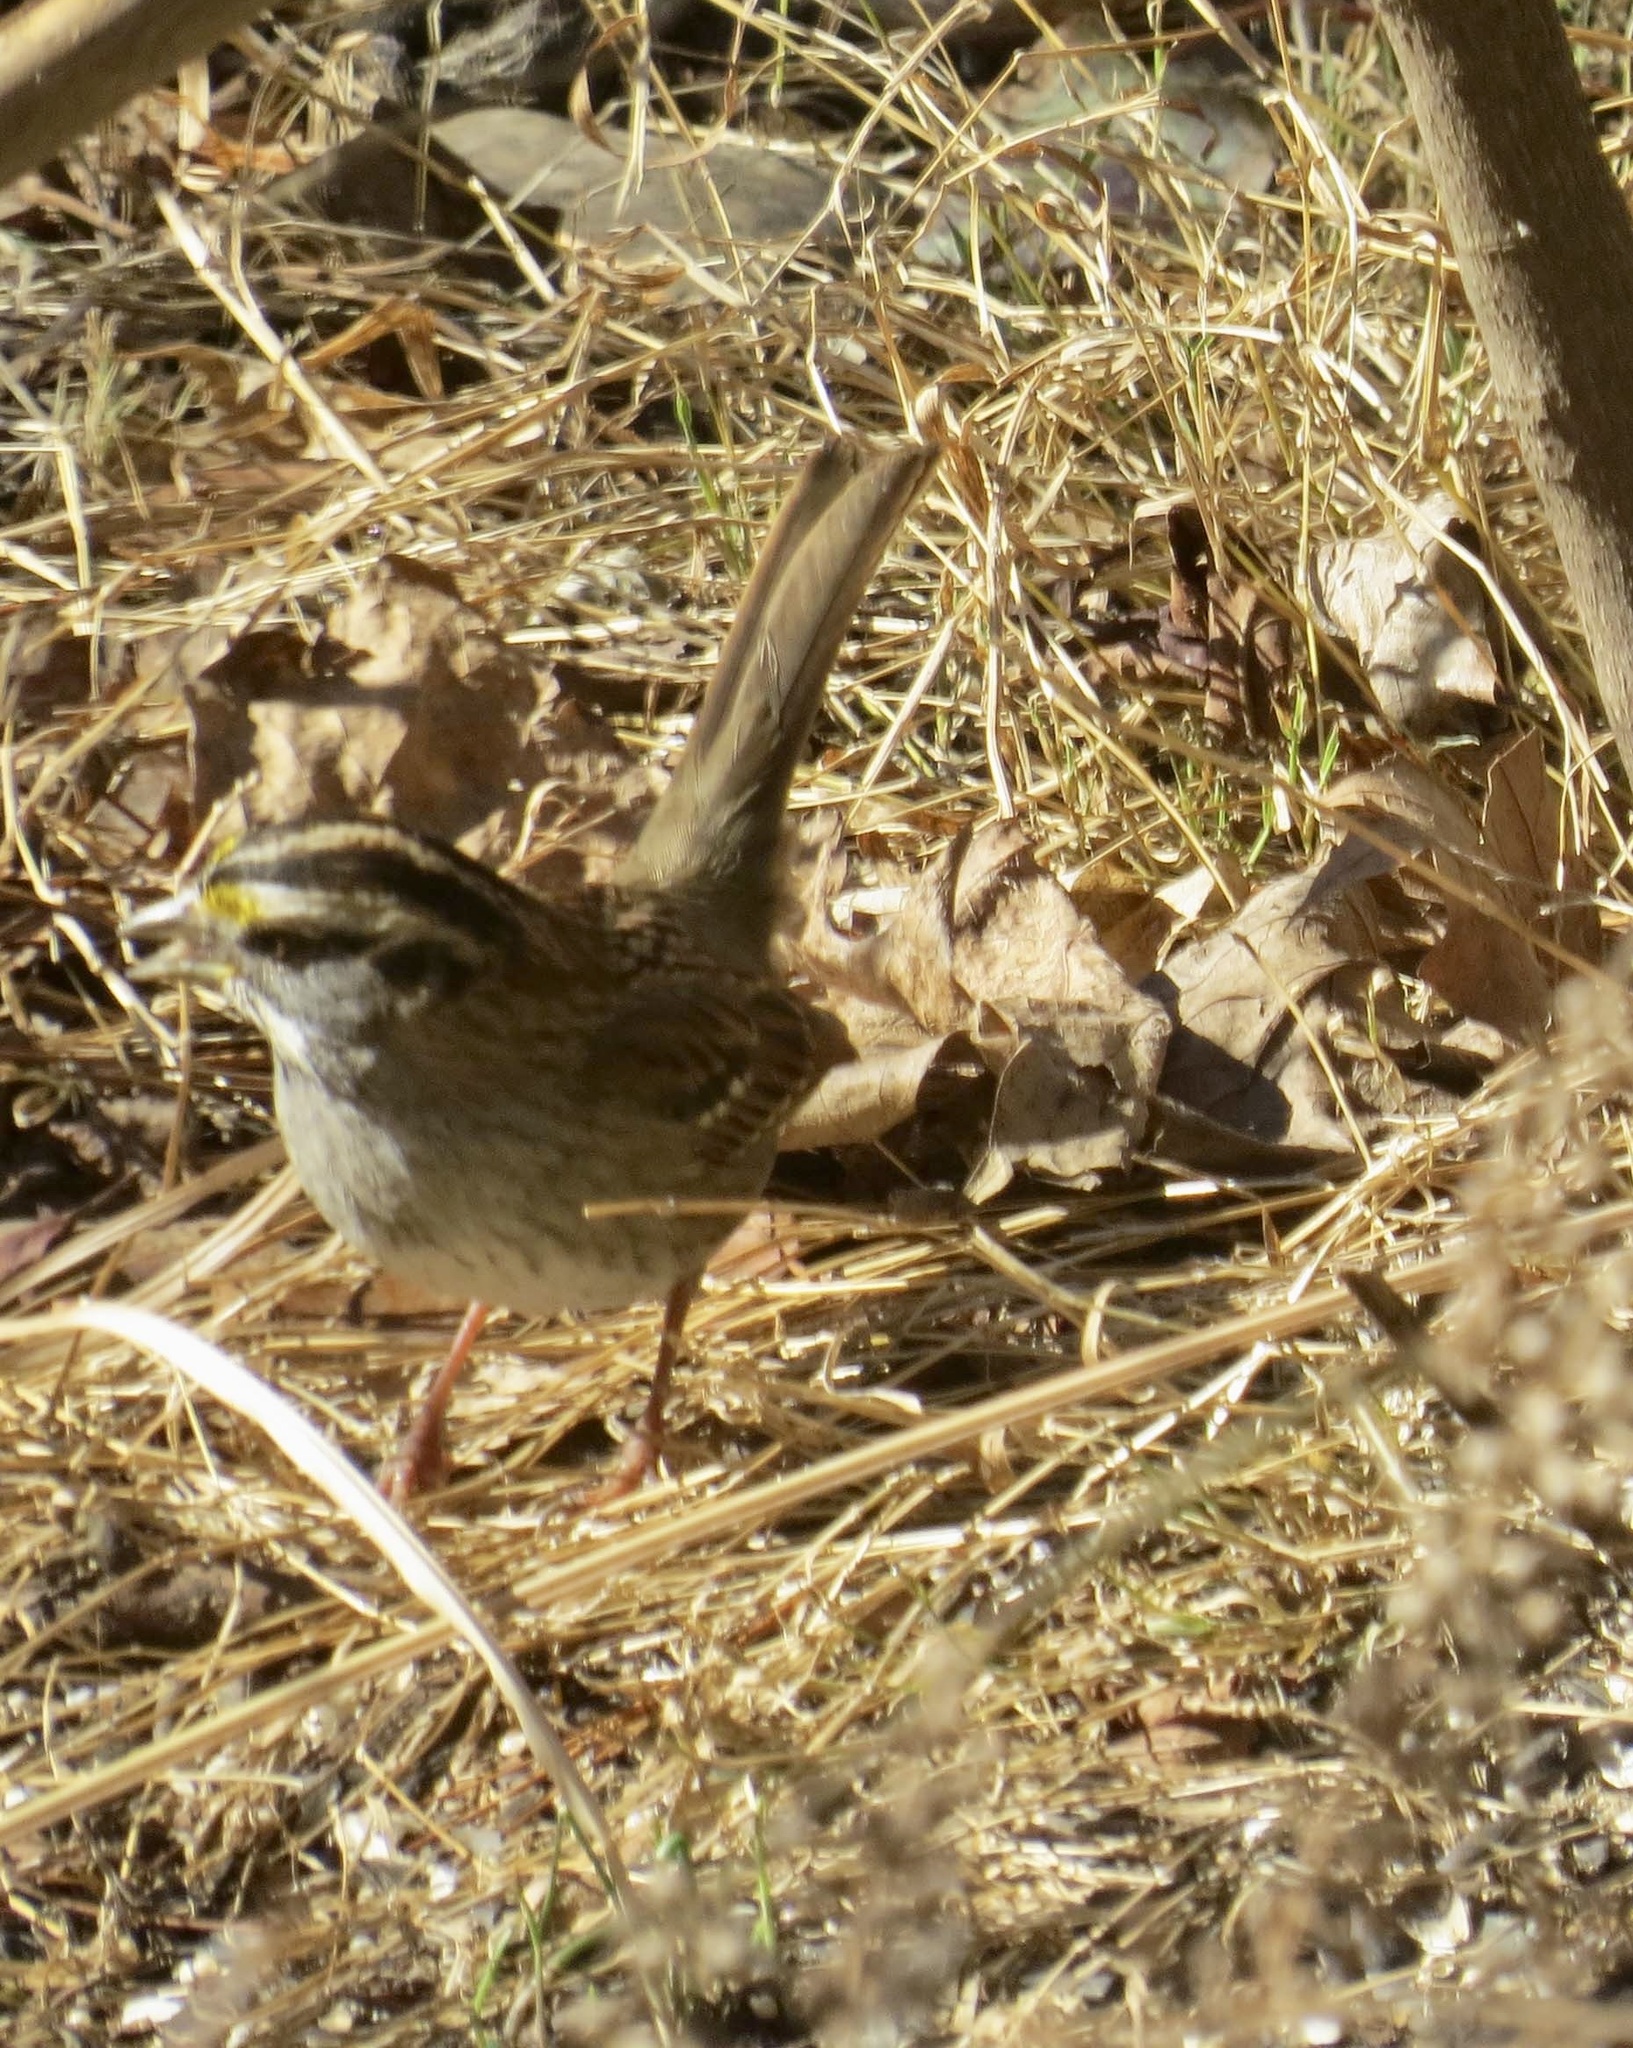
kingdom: Animalia
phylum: Chordata
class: Aves
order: Passeriformes
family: Passerellidae
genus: Zonotrichia
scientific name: Zonotrichia albicollis
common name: White-throated sparrow
